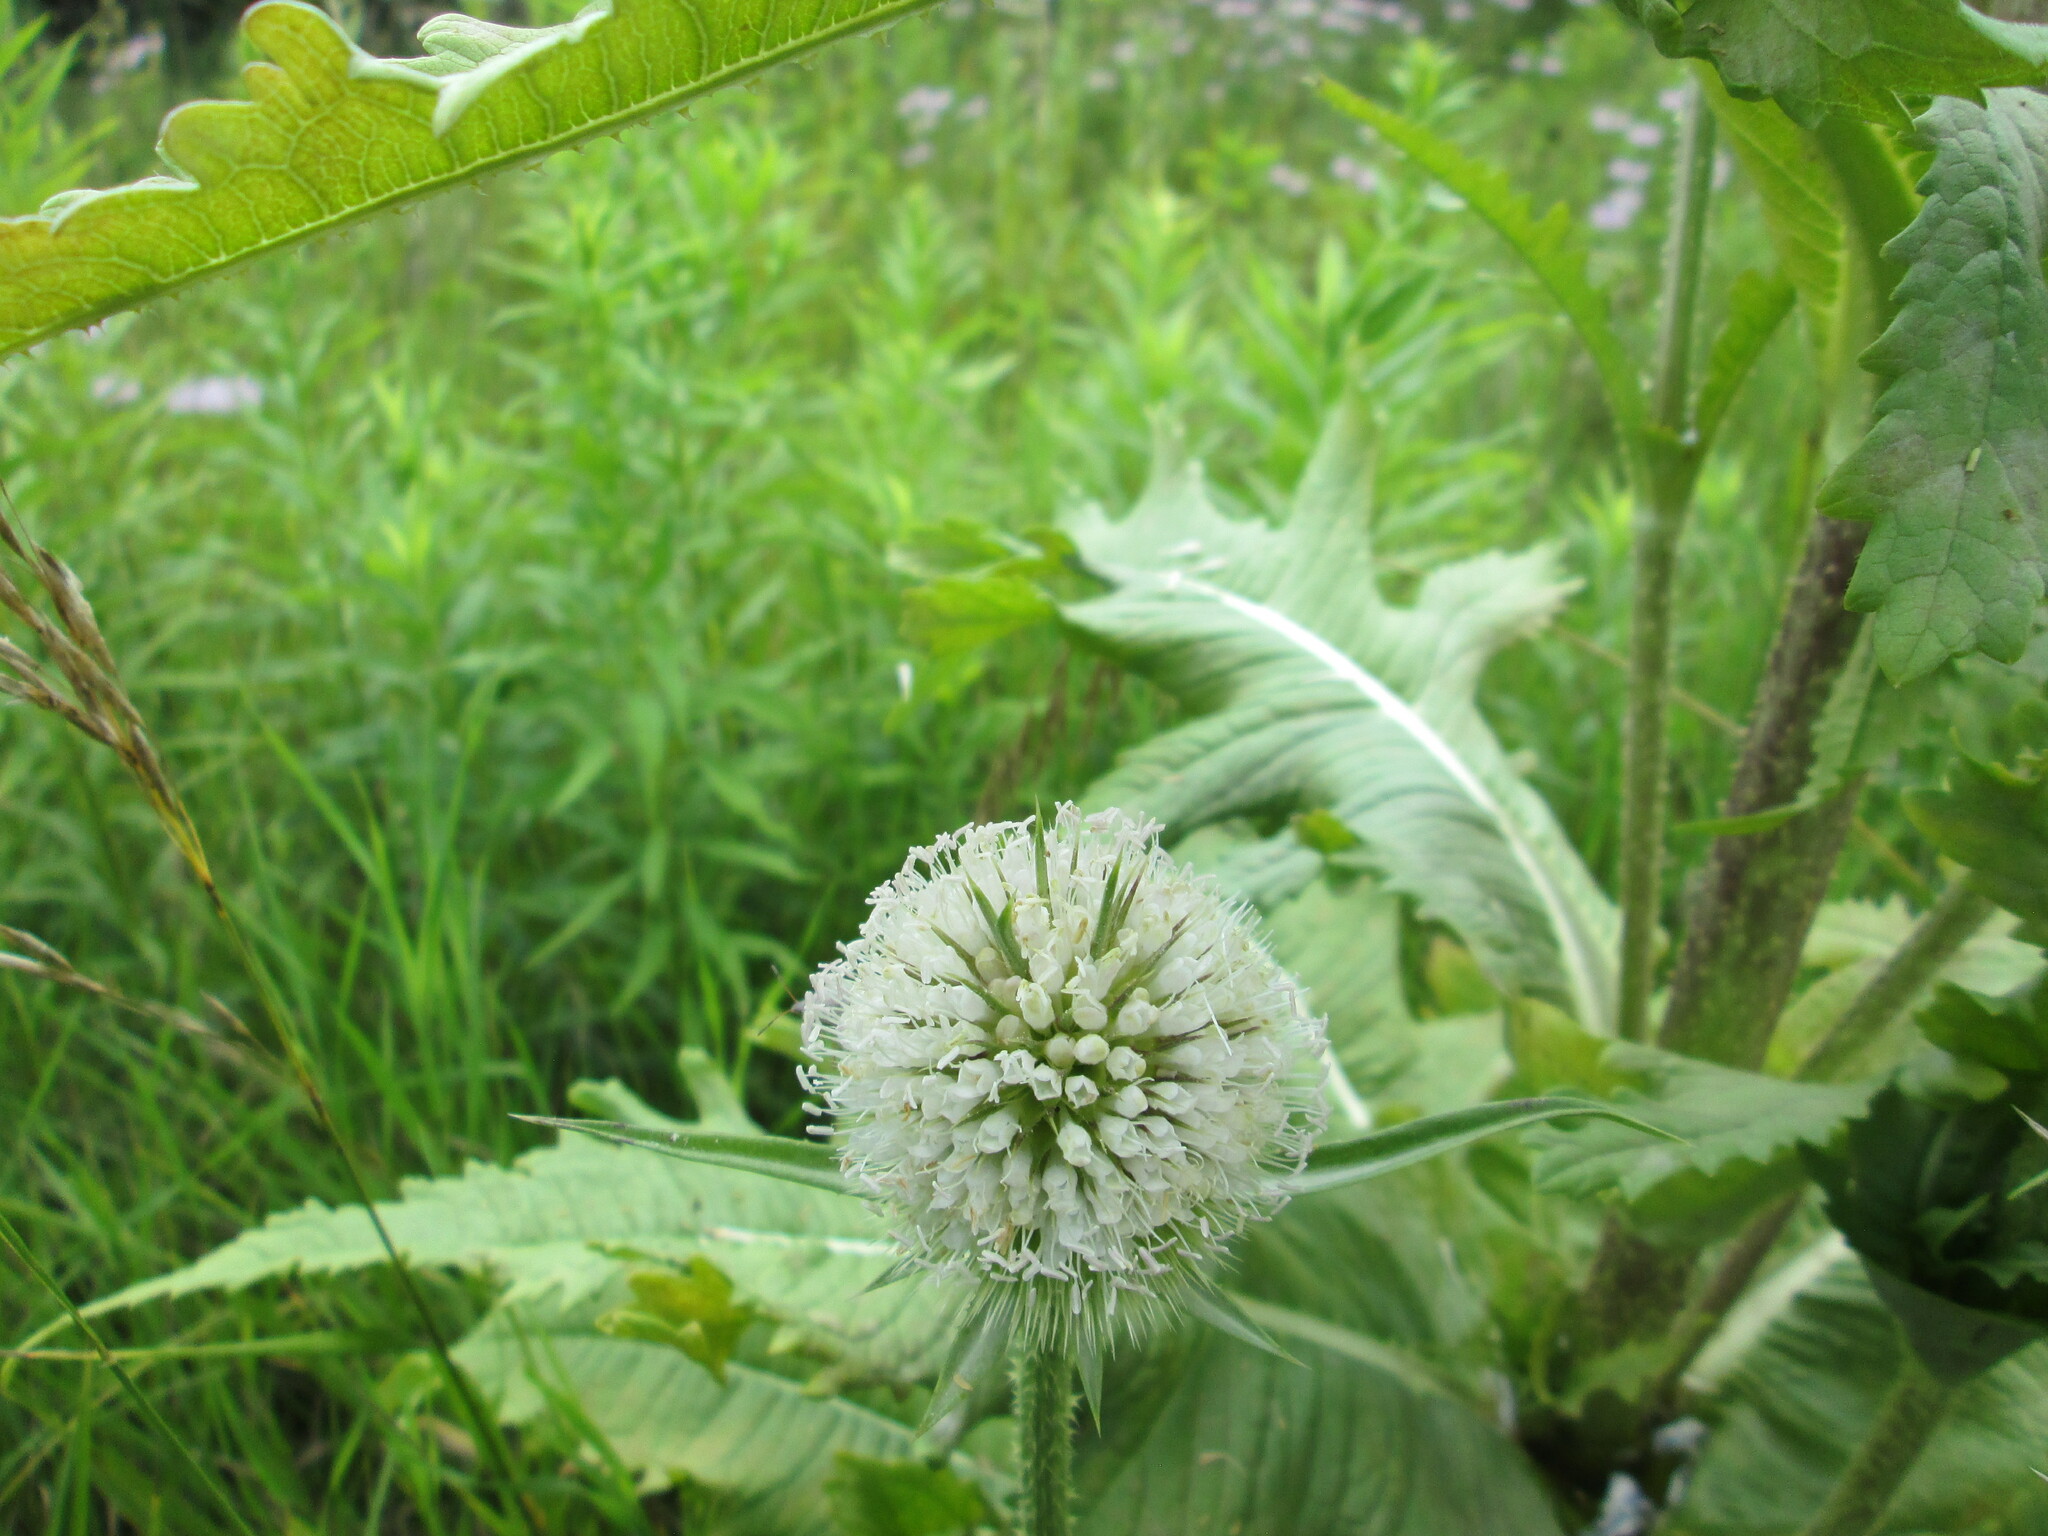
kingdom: Plantae
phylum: Tracheophyta
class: Magnoliopsida
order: Dipsacales
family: Caprifoliaceae
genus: Dipsacus
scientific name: Dipsacus laciniatus
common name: Cut-leaved teasel
